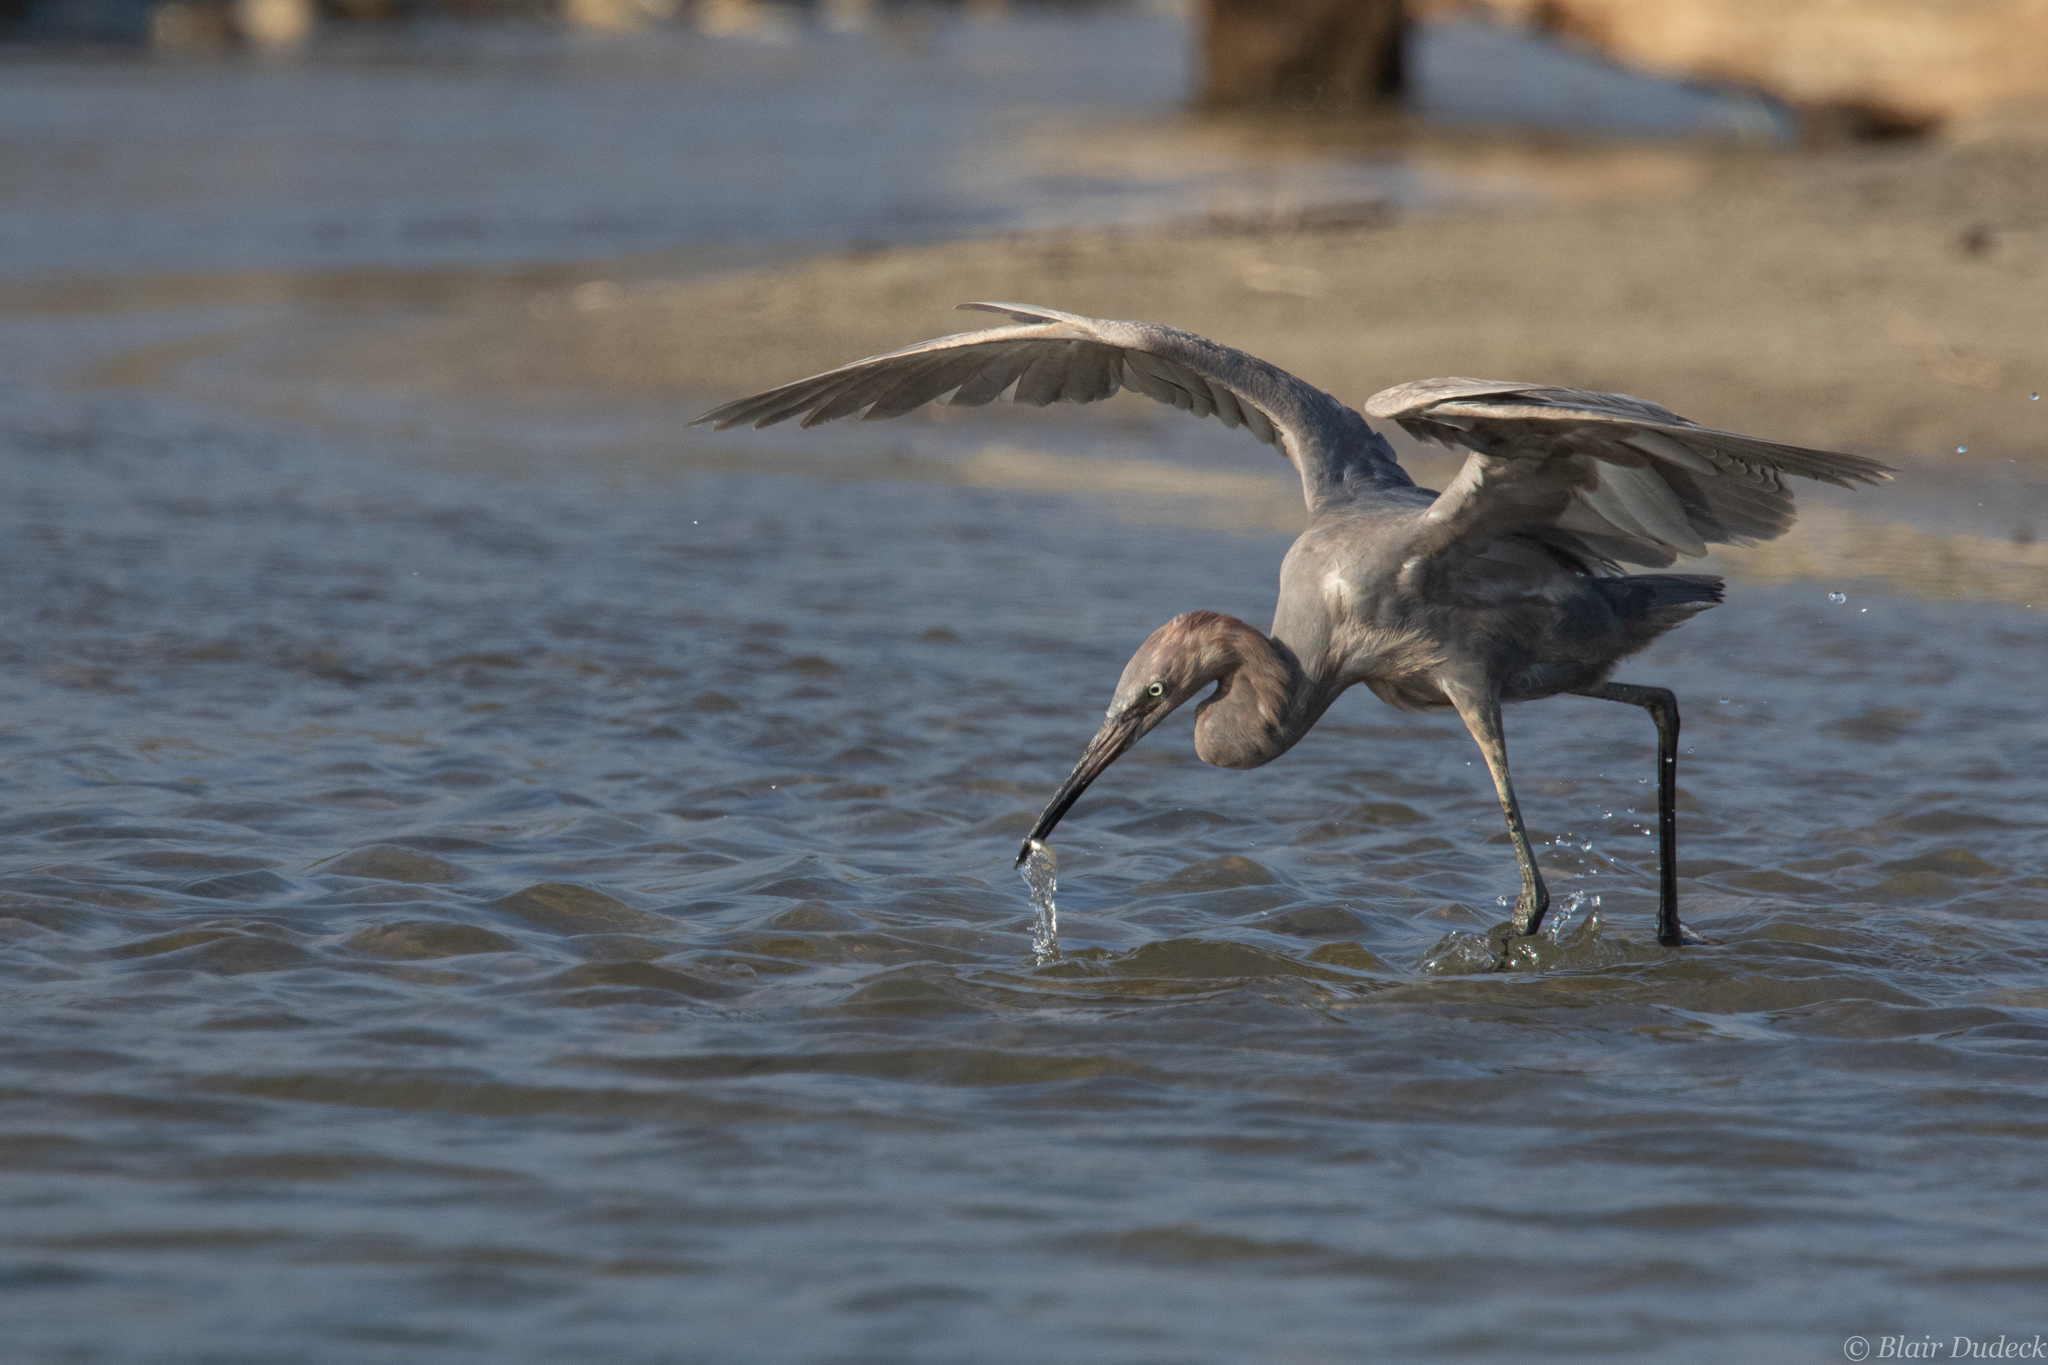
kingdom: Animalia
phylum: Chordata
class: Aves
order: Pelecaniformes
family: Ardeidae
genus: Egretta
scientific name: Egretta rufescens
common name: Reddish egret
